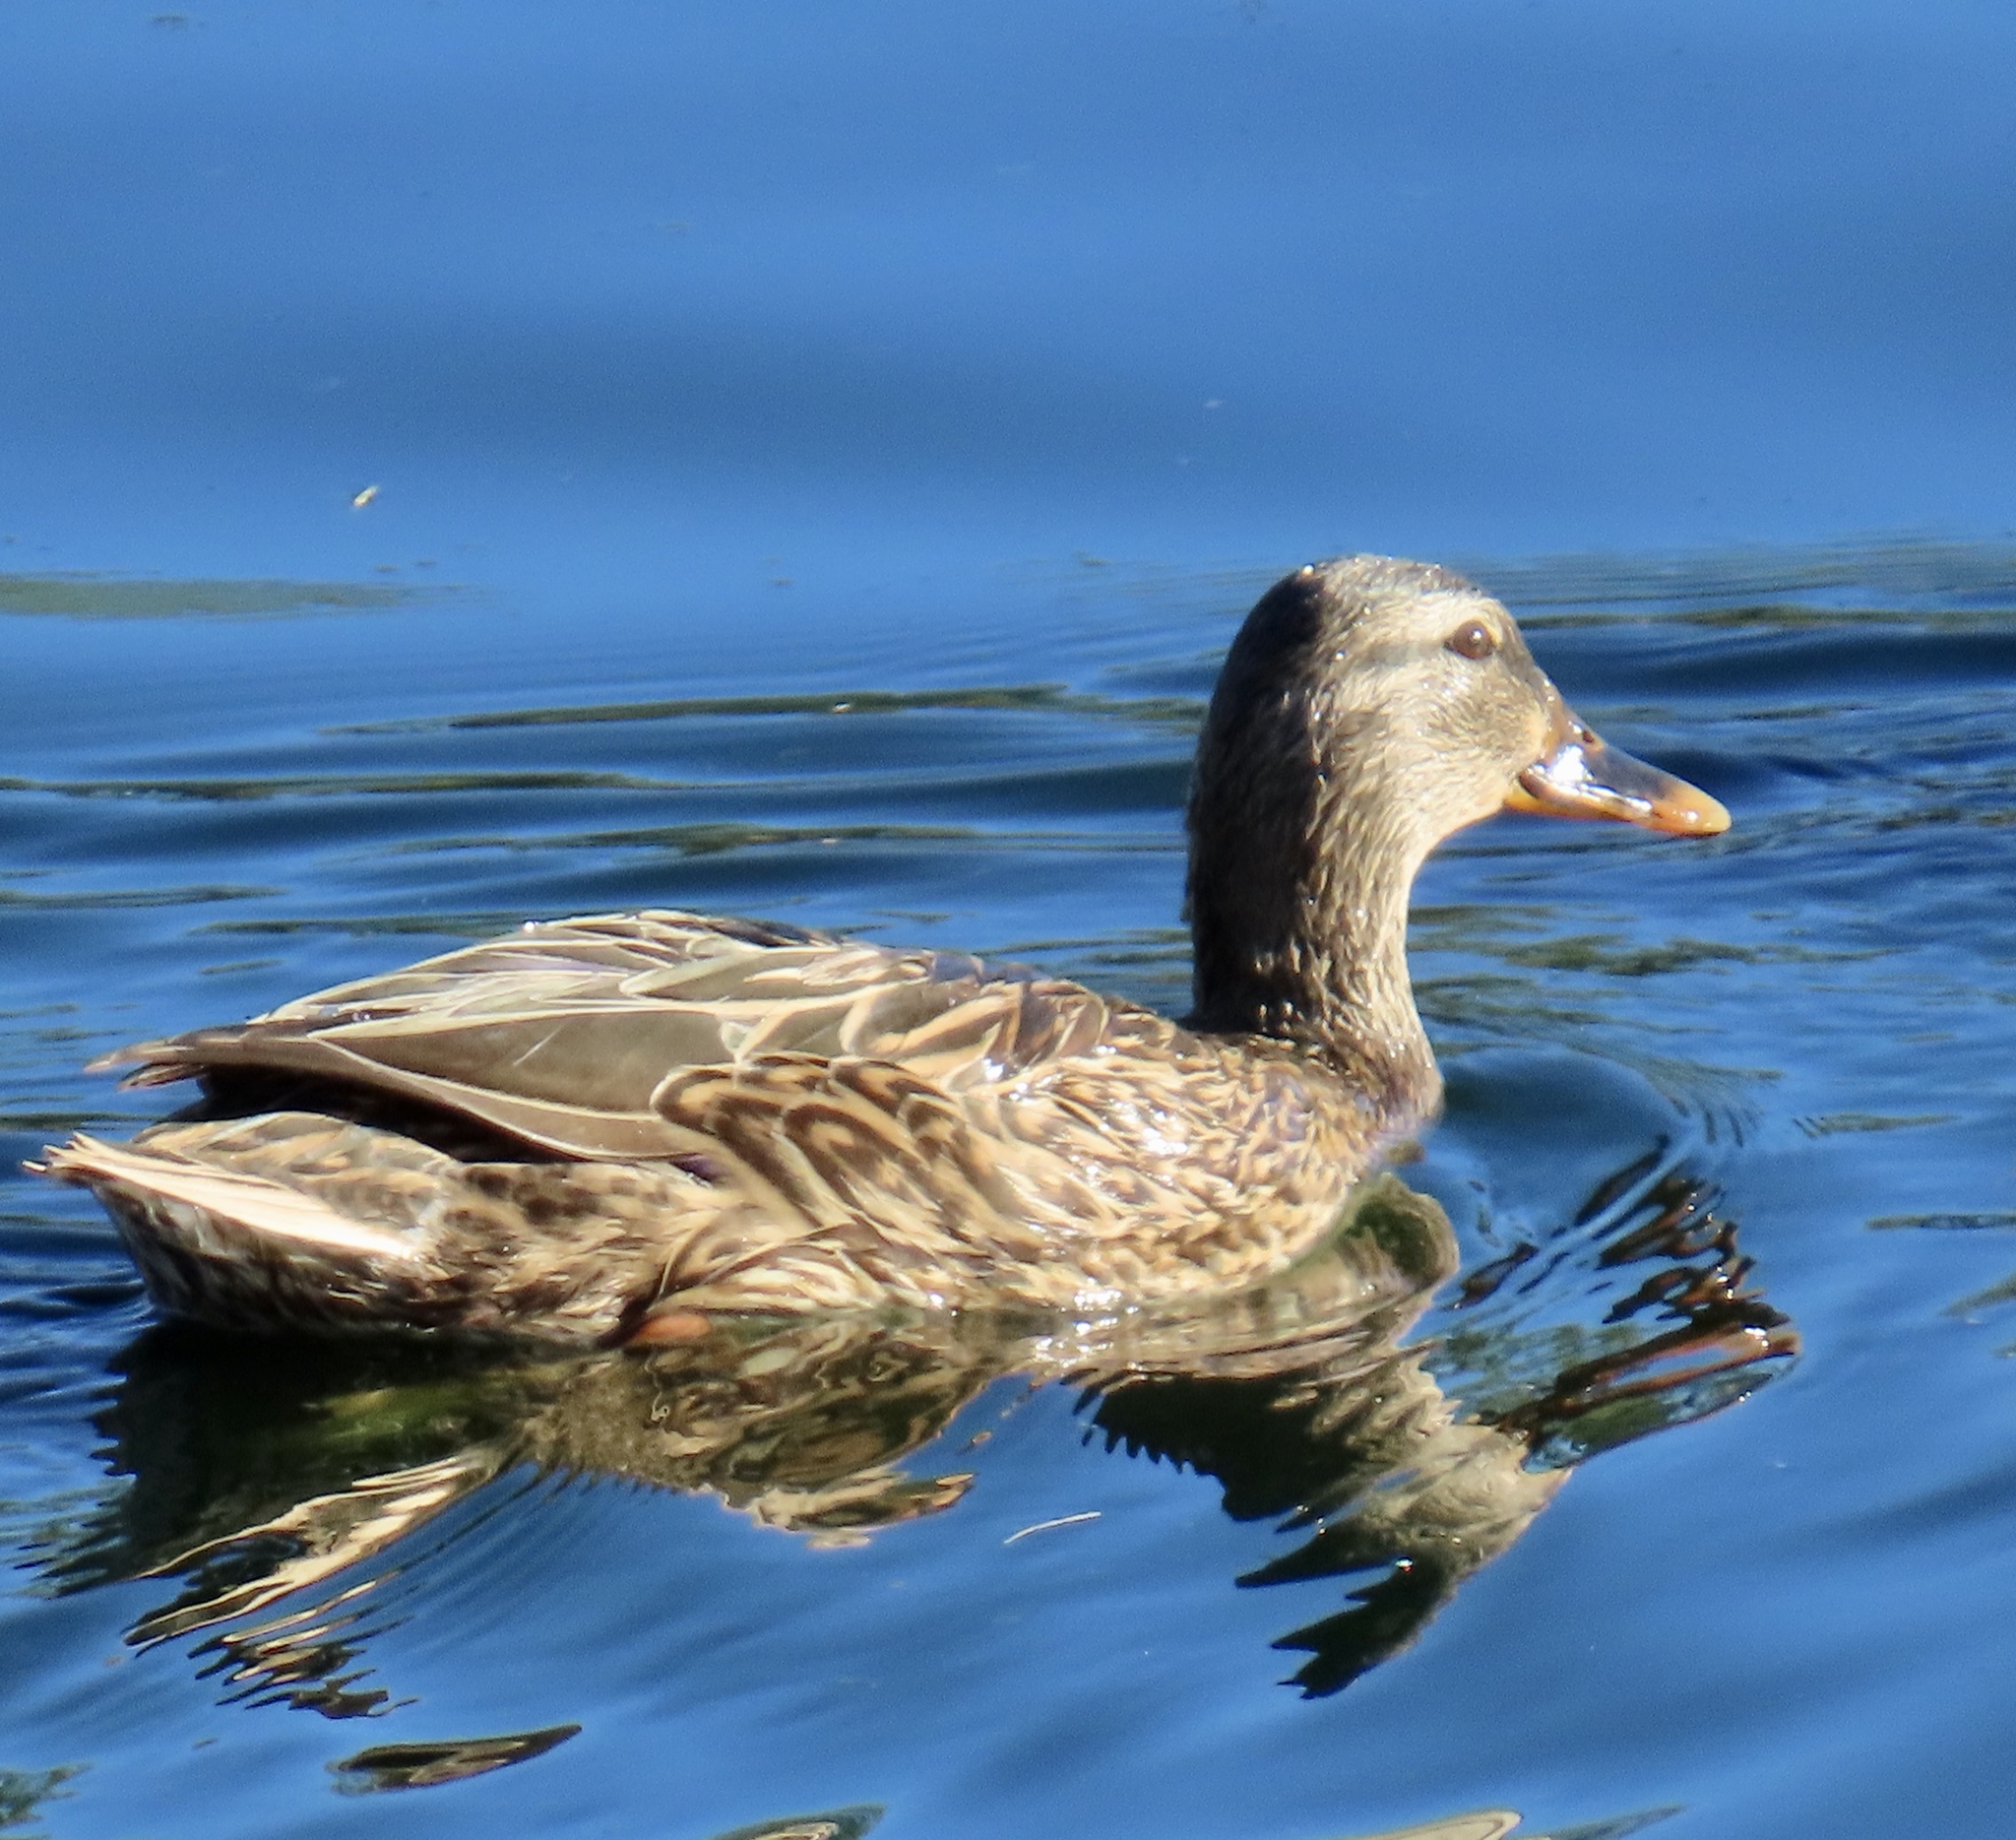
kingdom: Animalia
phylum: Chordata
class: Aves
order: Anseriformes
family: Anatidae
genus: Anas
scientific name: Anas platyrhynchos
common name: Mallard
